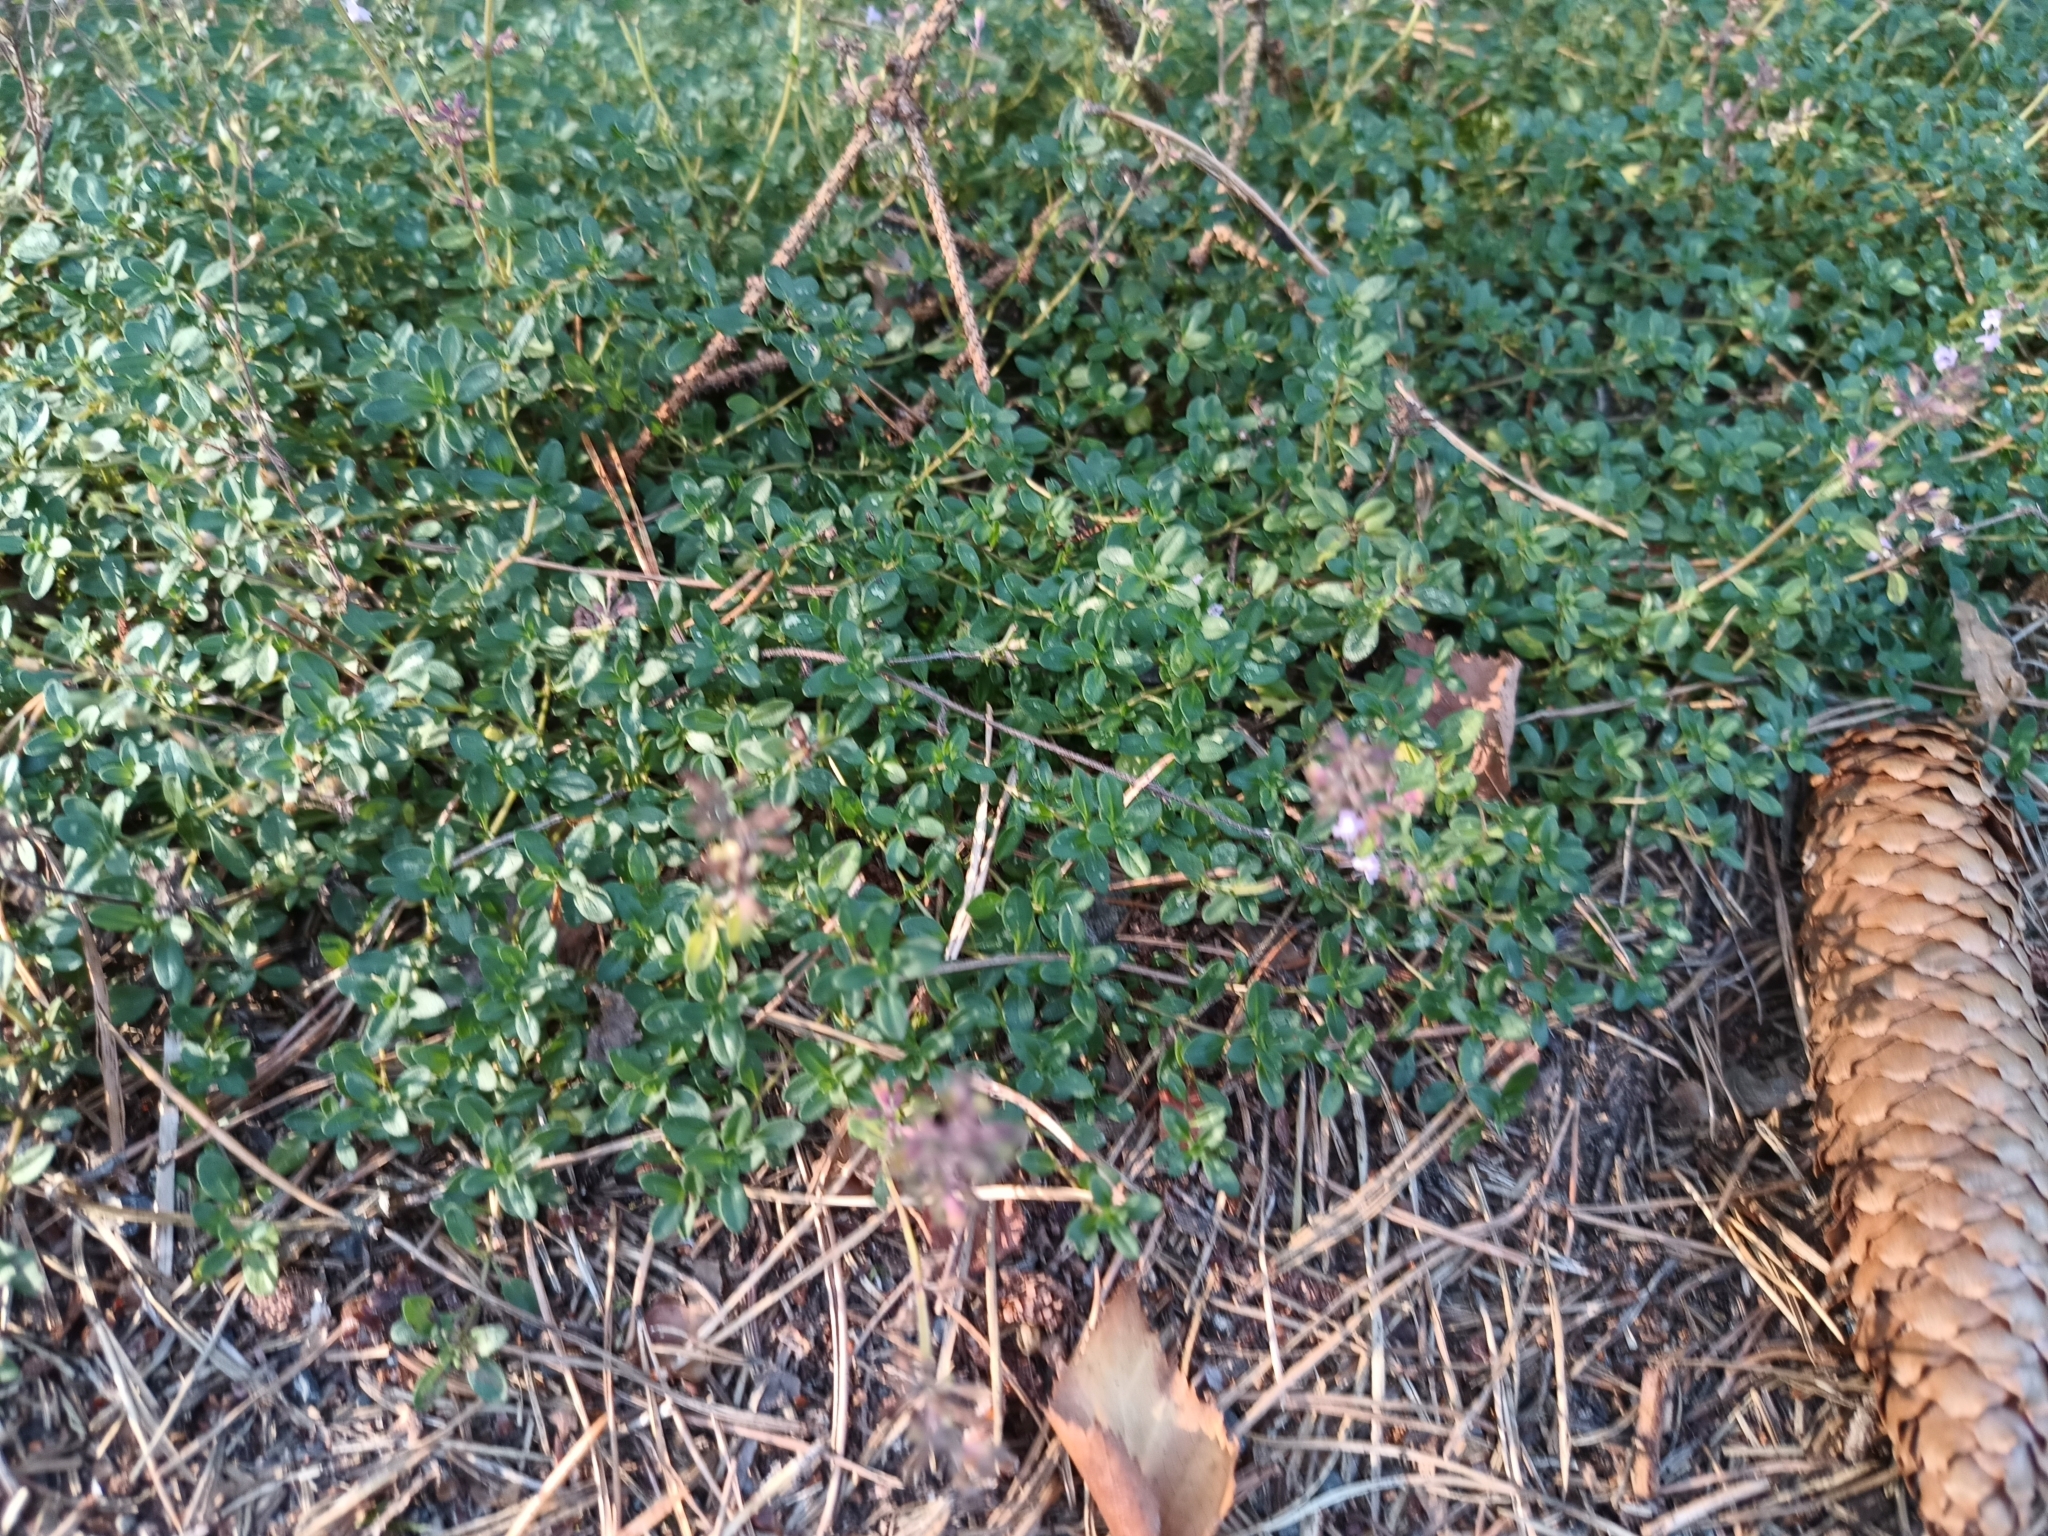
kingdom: Plantae
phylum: Tracheophyta
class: Magnoliopsida
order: Lamiales
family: Lamiaceae
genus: Thymus
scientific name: Thymus pulegioides
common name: Large thyme
